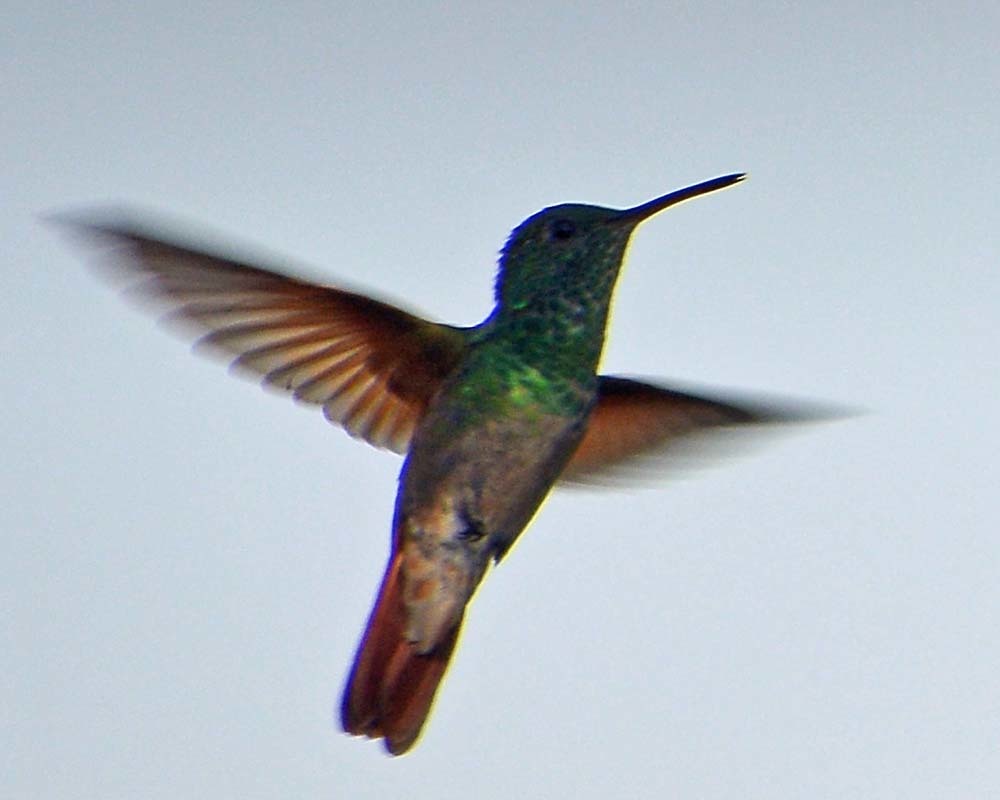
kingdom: Animalia
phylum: Chordata
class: Aves
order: Apodiformes
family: Trochilidae
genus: Saucerottia
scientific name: Saucerottia beryllina
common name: Berylline hummingbird
